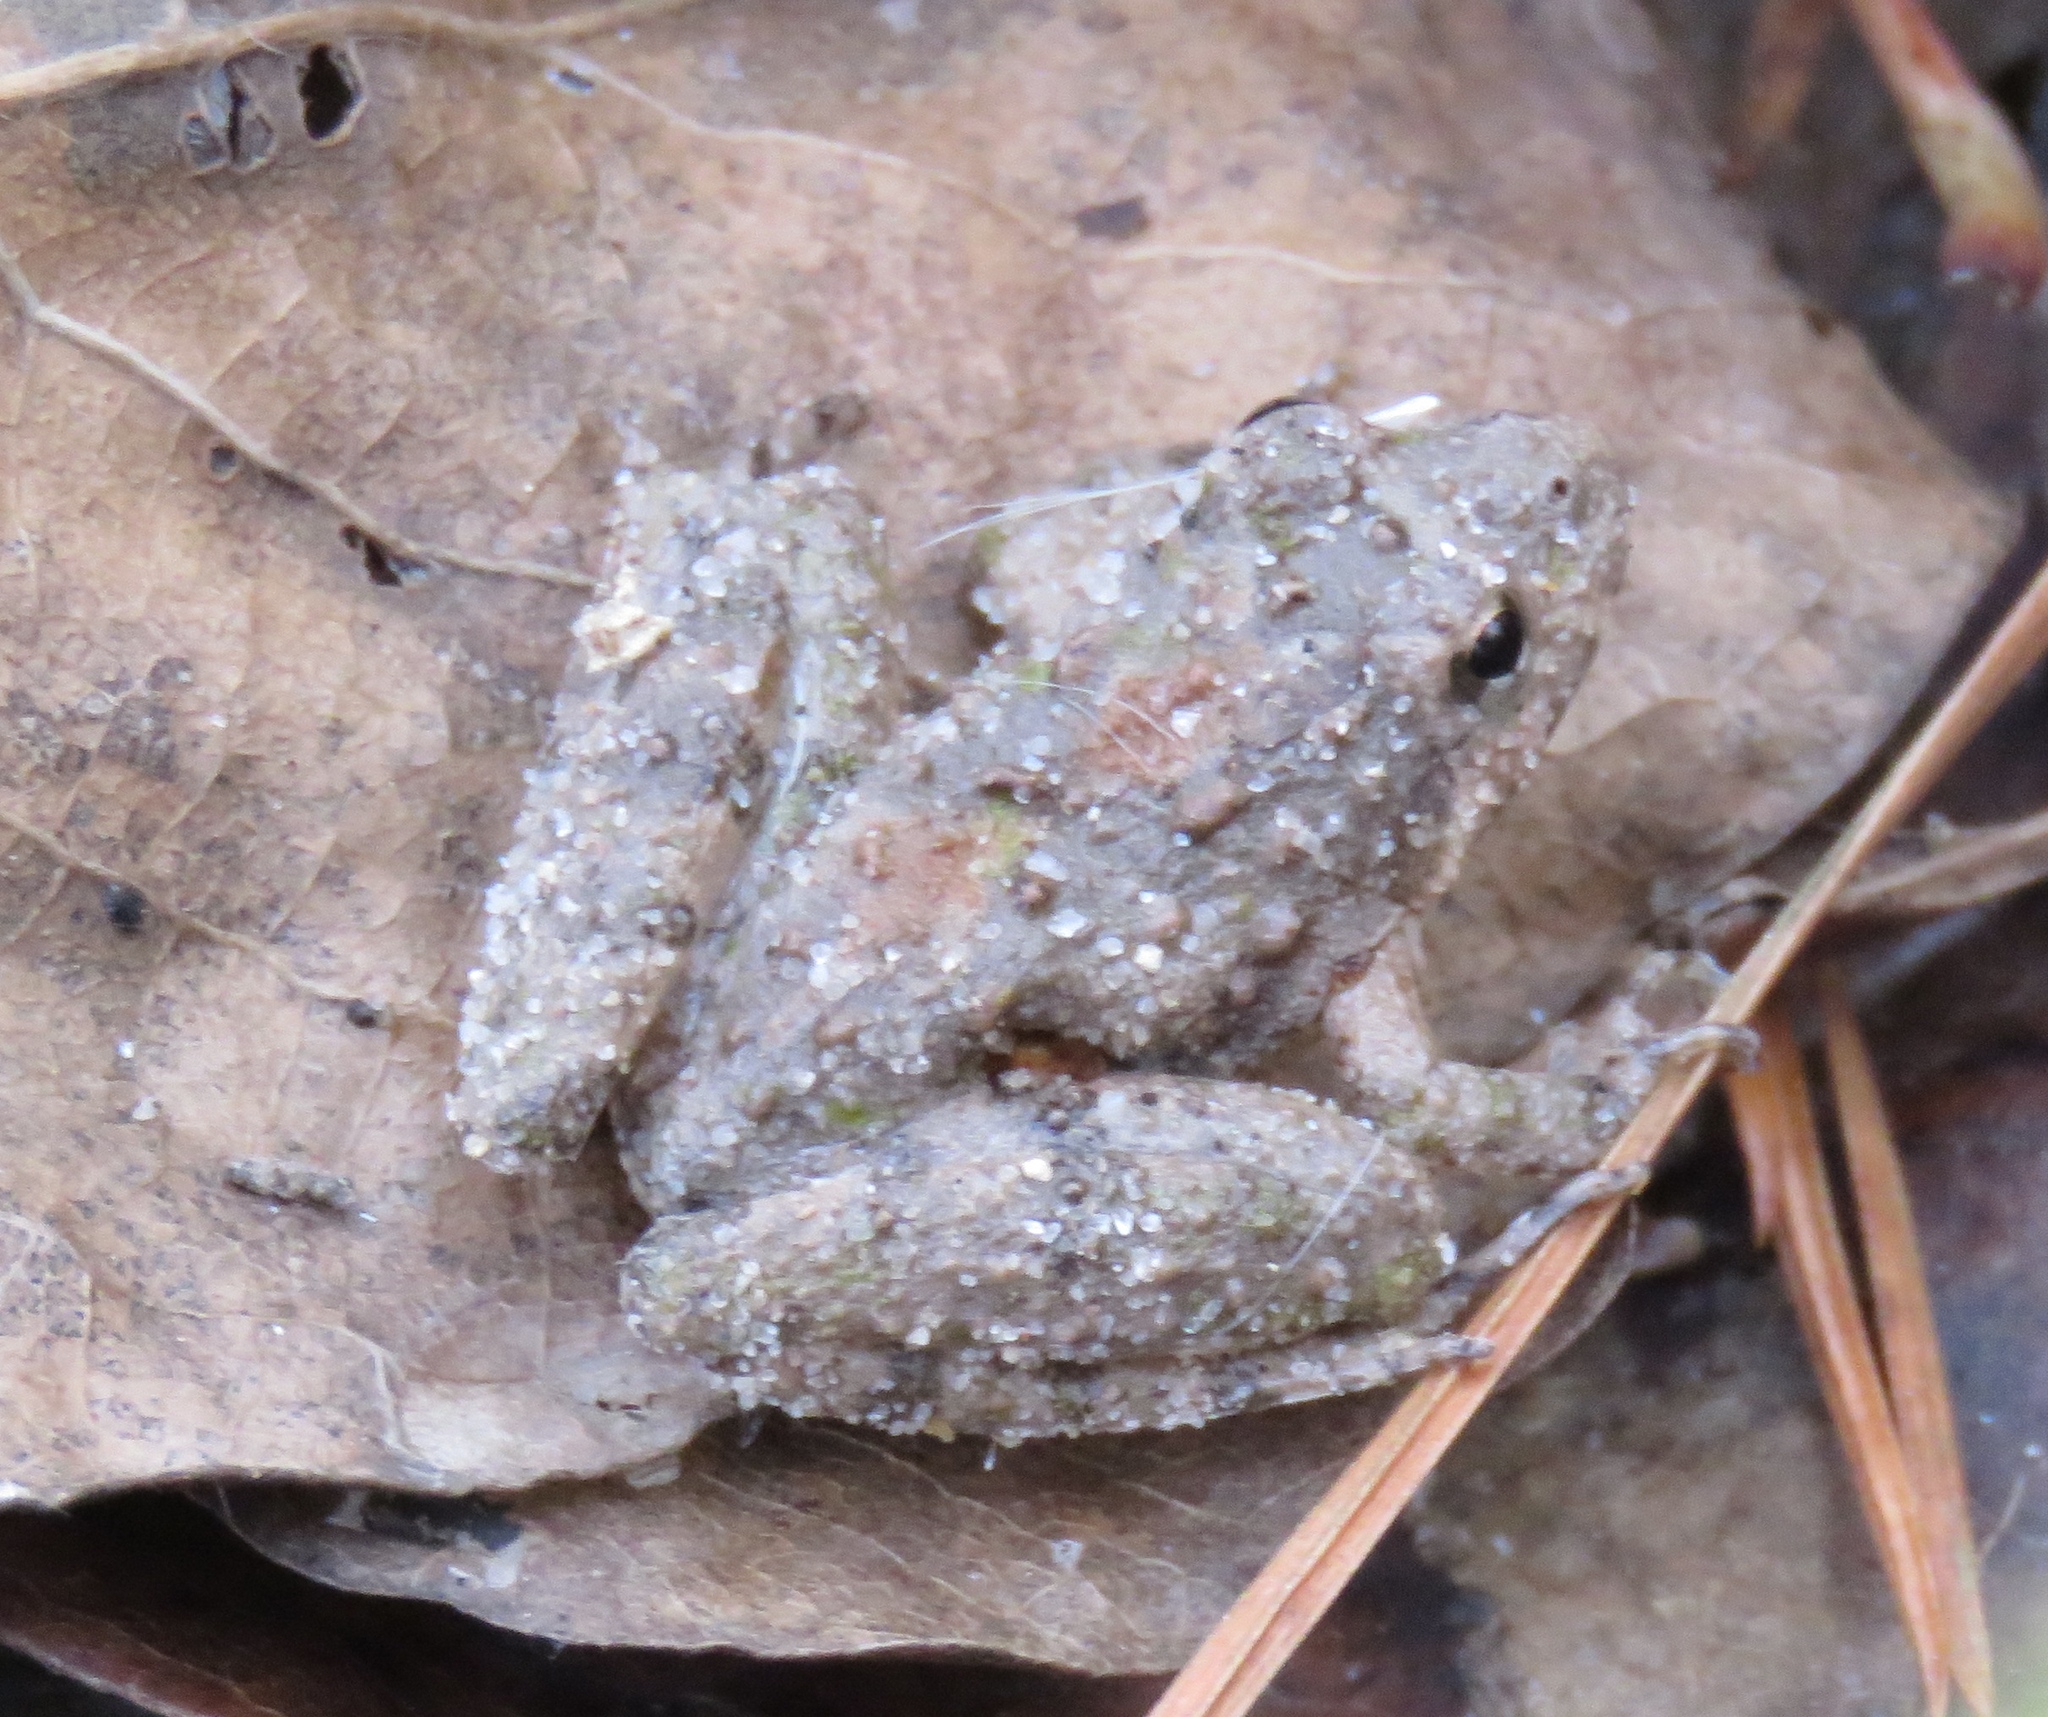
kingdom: Animalia
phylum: Chordata
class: Amphibia
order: Anura
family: Hylidae
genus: Acris
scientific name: Acris blanchardi
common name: Blanchard's cricket frog
